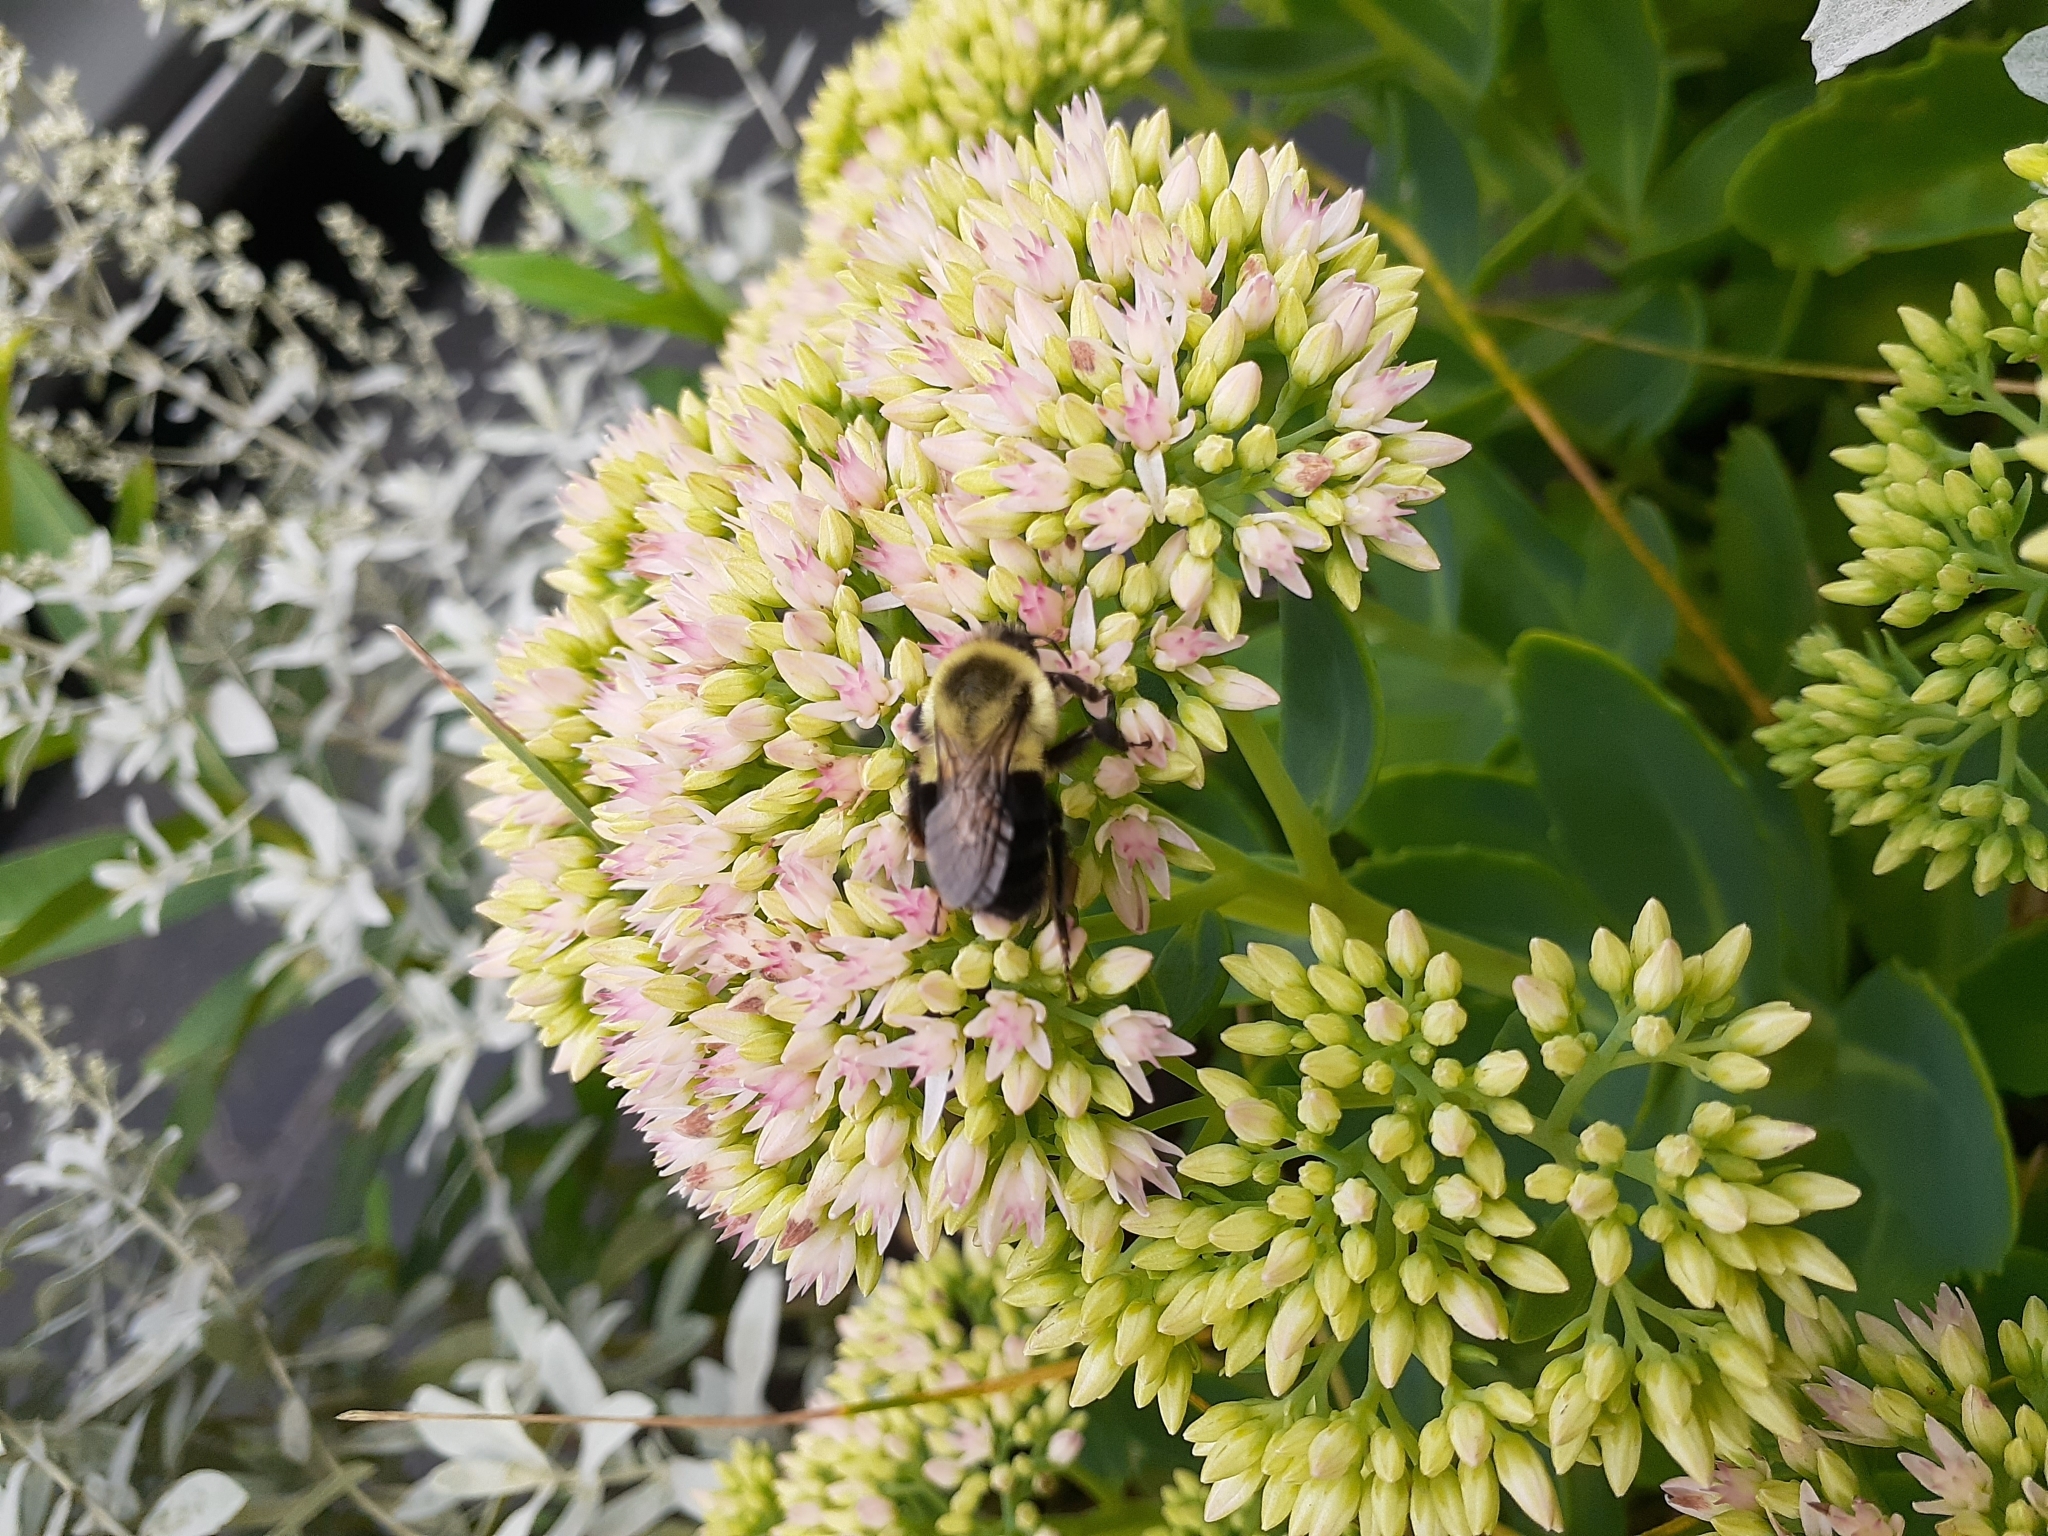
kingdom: Animalia
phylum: Arthropoda
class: Insecta
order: Hymenoptera
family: Apidae
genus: Bombus
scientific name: Bombus impatiens
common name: Common eastern bumble bee
